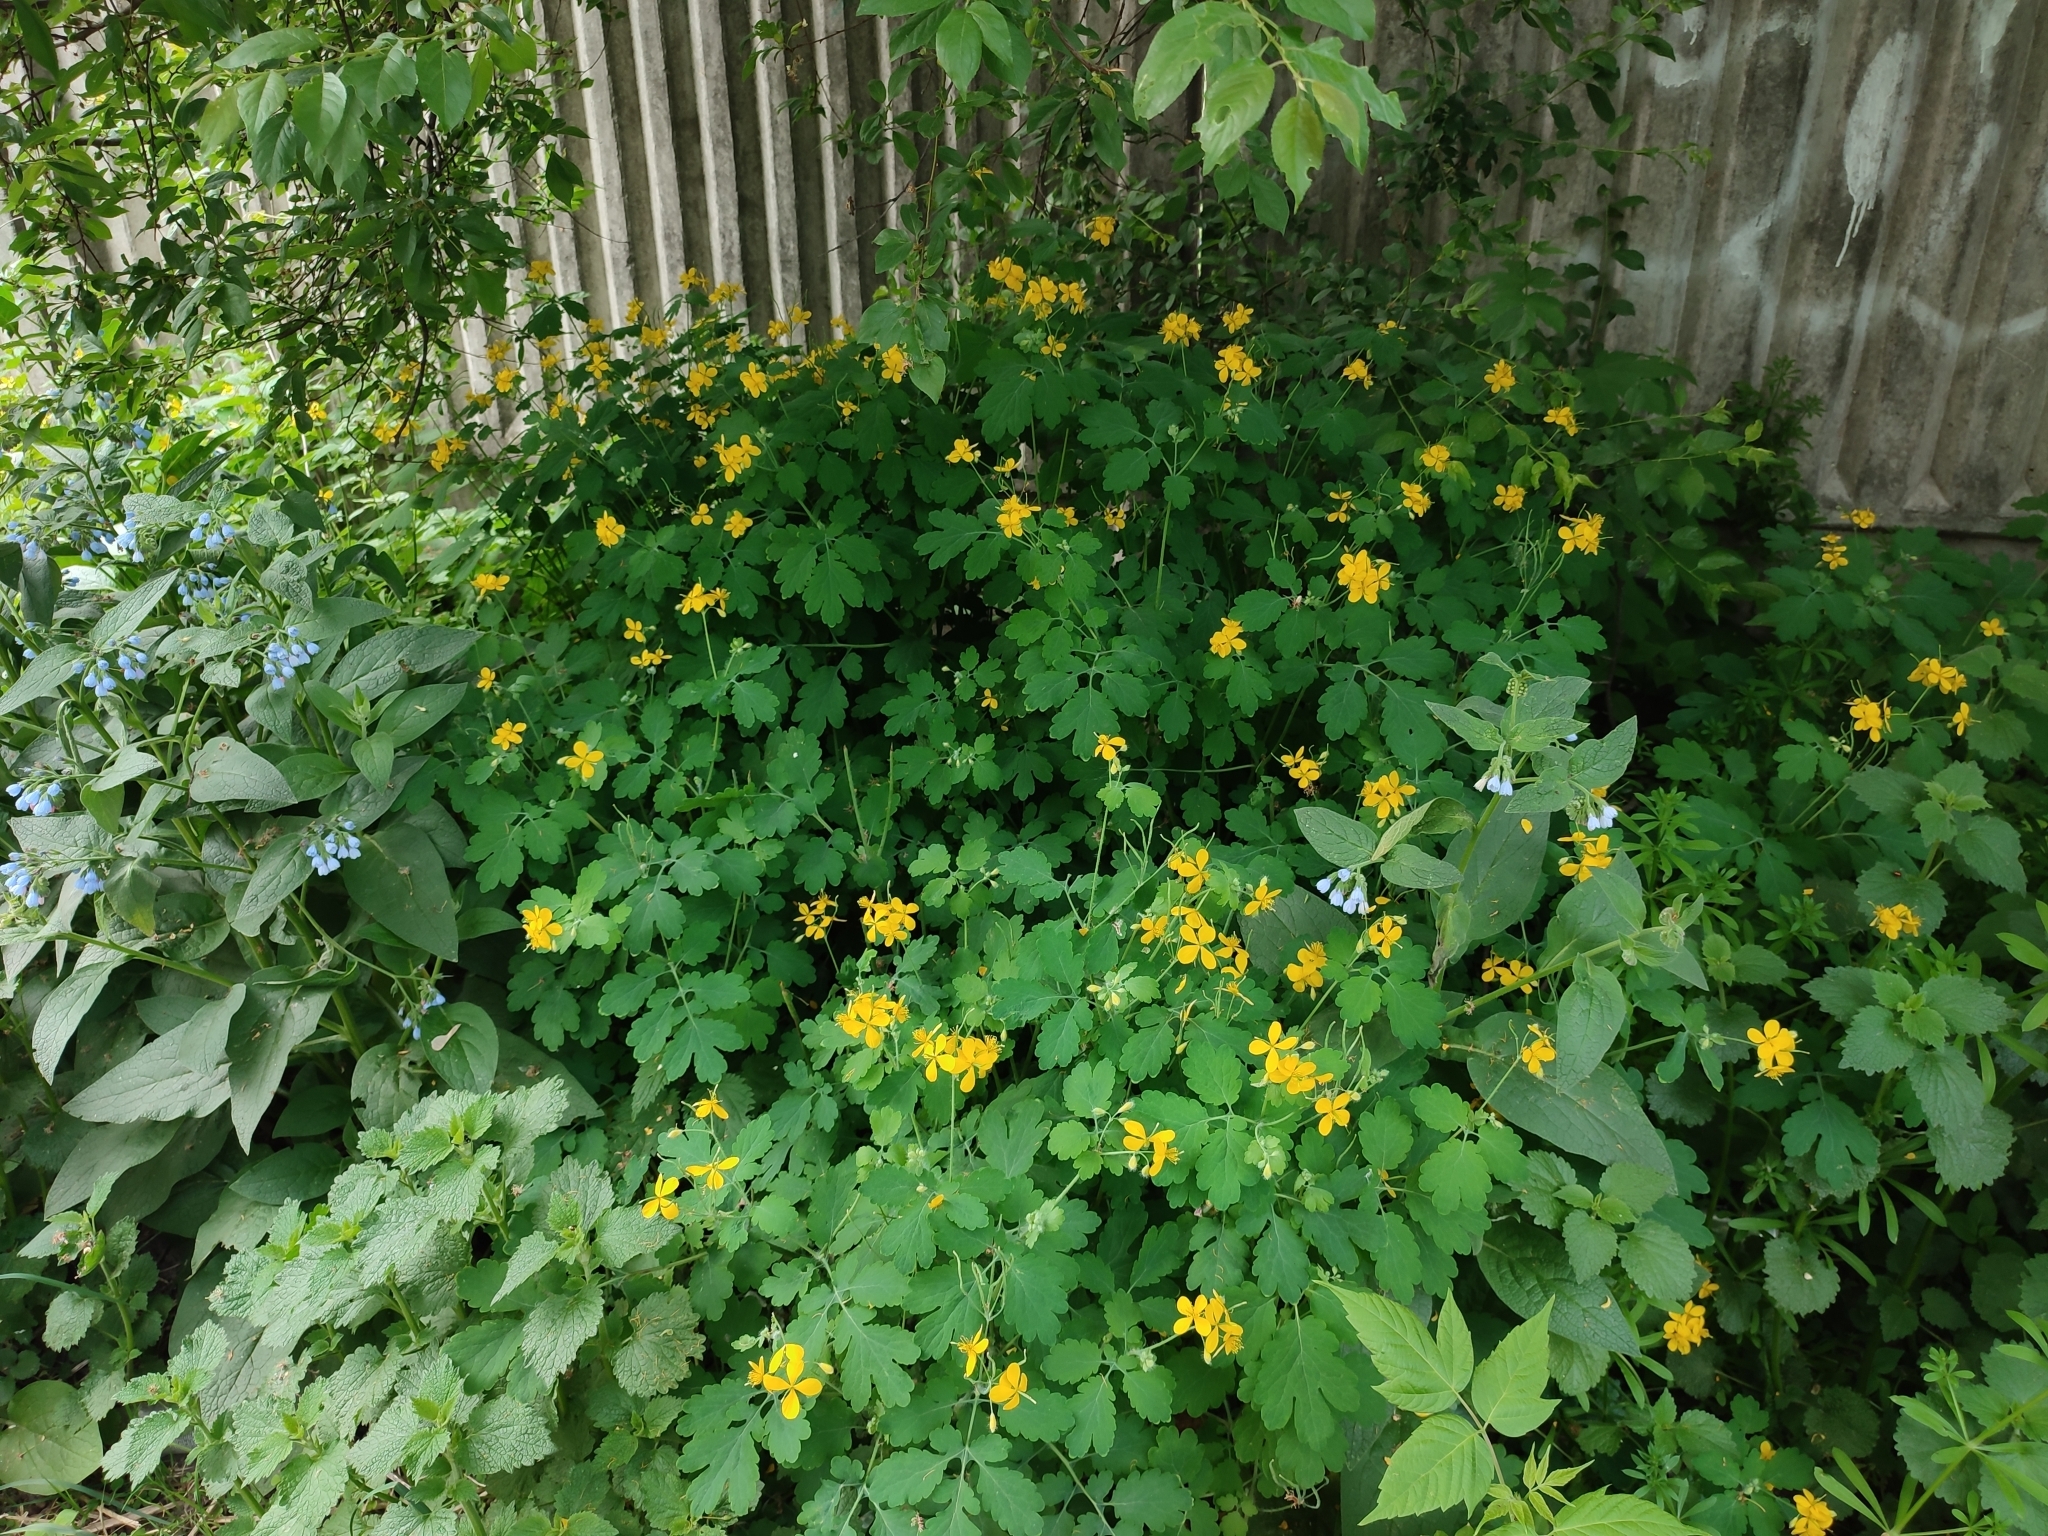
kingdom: Plantae
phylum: Tracheophyta
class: Magnoliopsida
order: Ranunculales
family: Papaveraceae
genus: Chelidonium
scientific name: Chelidonium majus
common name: Greater celandine
